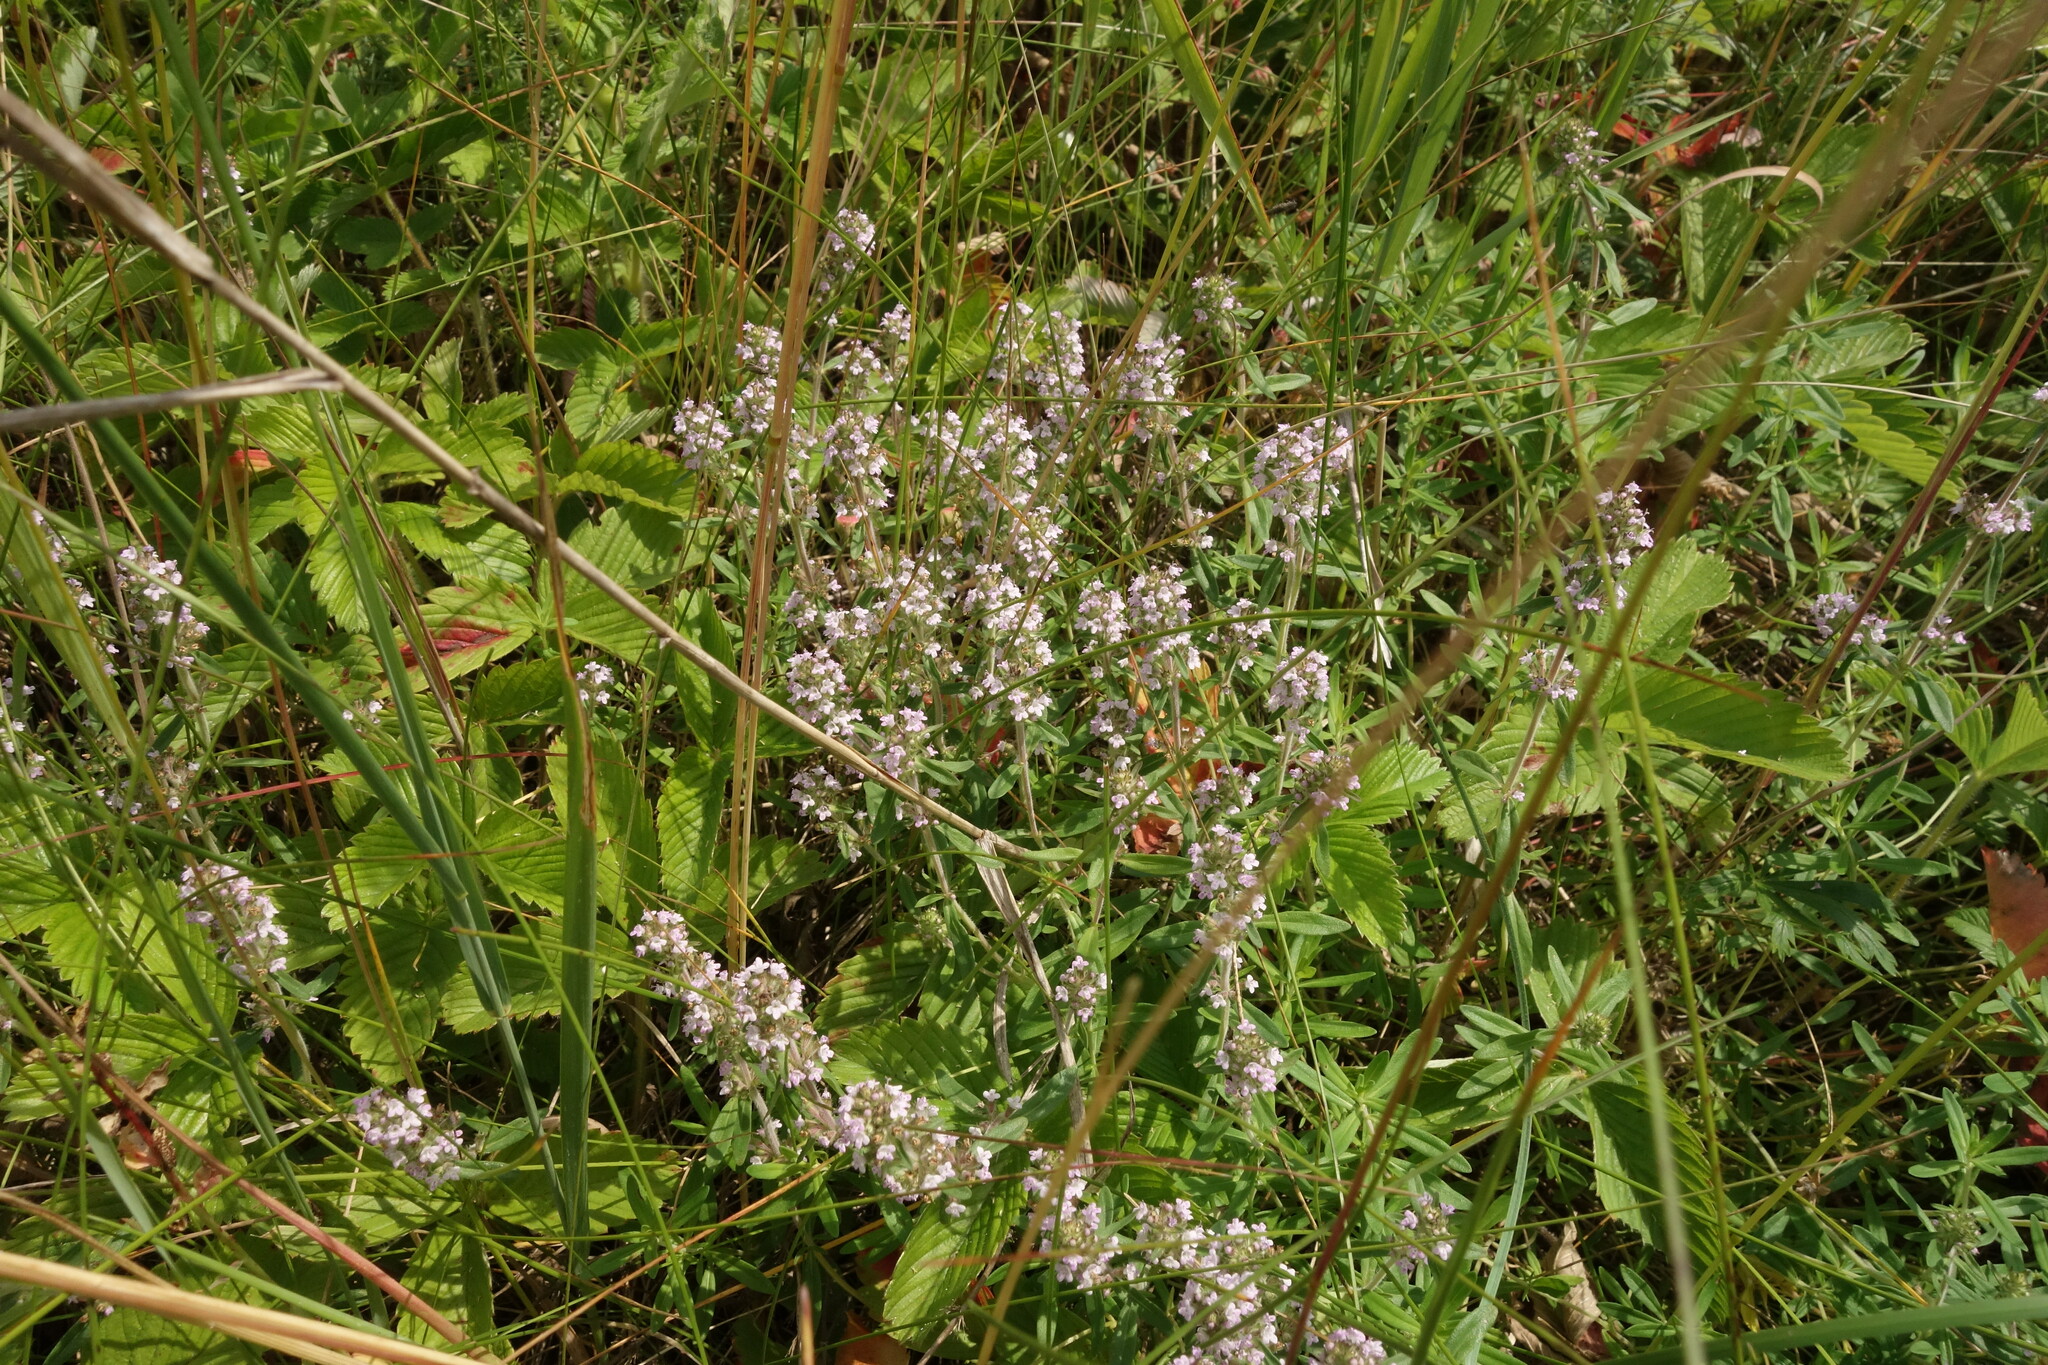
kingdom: Plantae
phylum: Tracheophyta
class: Magnoliopsida
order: Lamiales
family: Lamiaceae
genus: Thymus
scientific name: Thymus pannonicus
